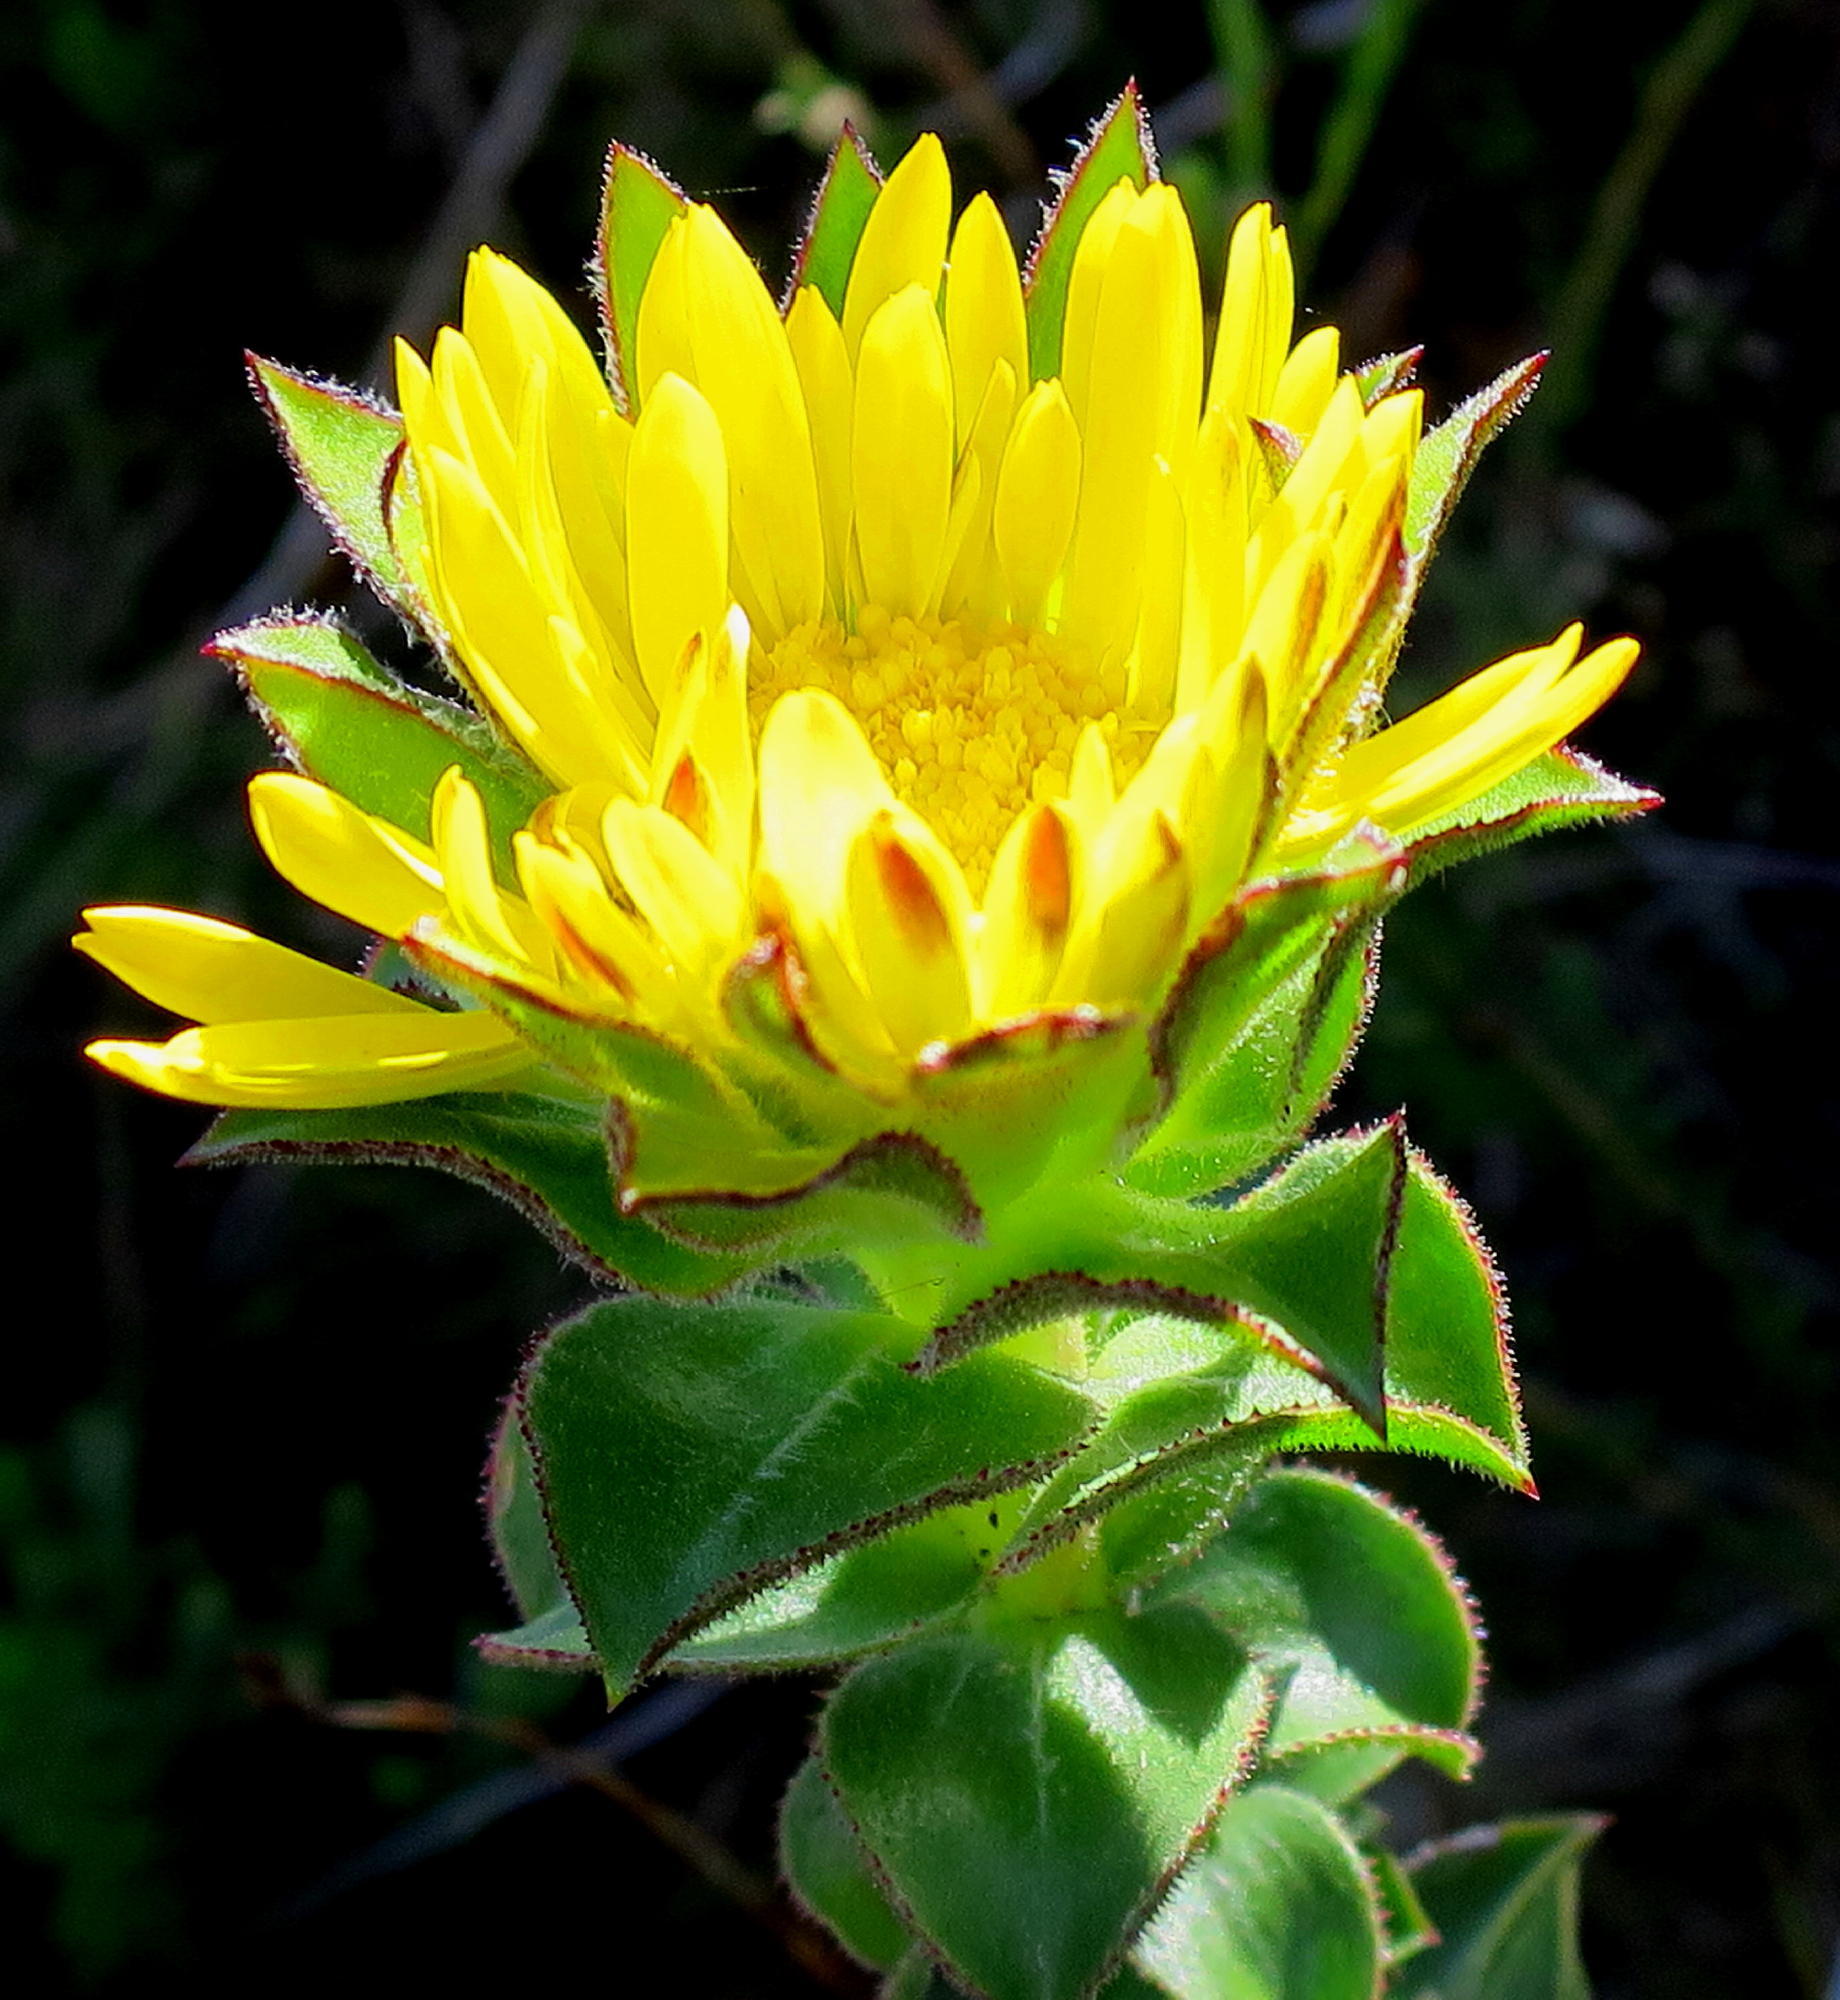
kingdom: Plantae
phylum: Tracheophyta
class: Magnoliopsida
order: Asterales
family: Asteraceae
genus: Oedera
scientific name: Oedera imbricata
